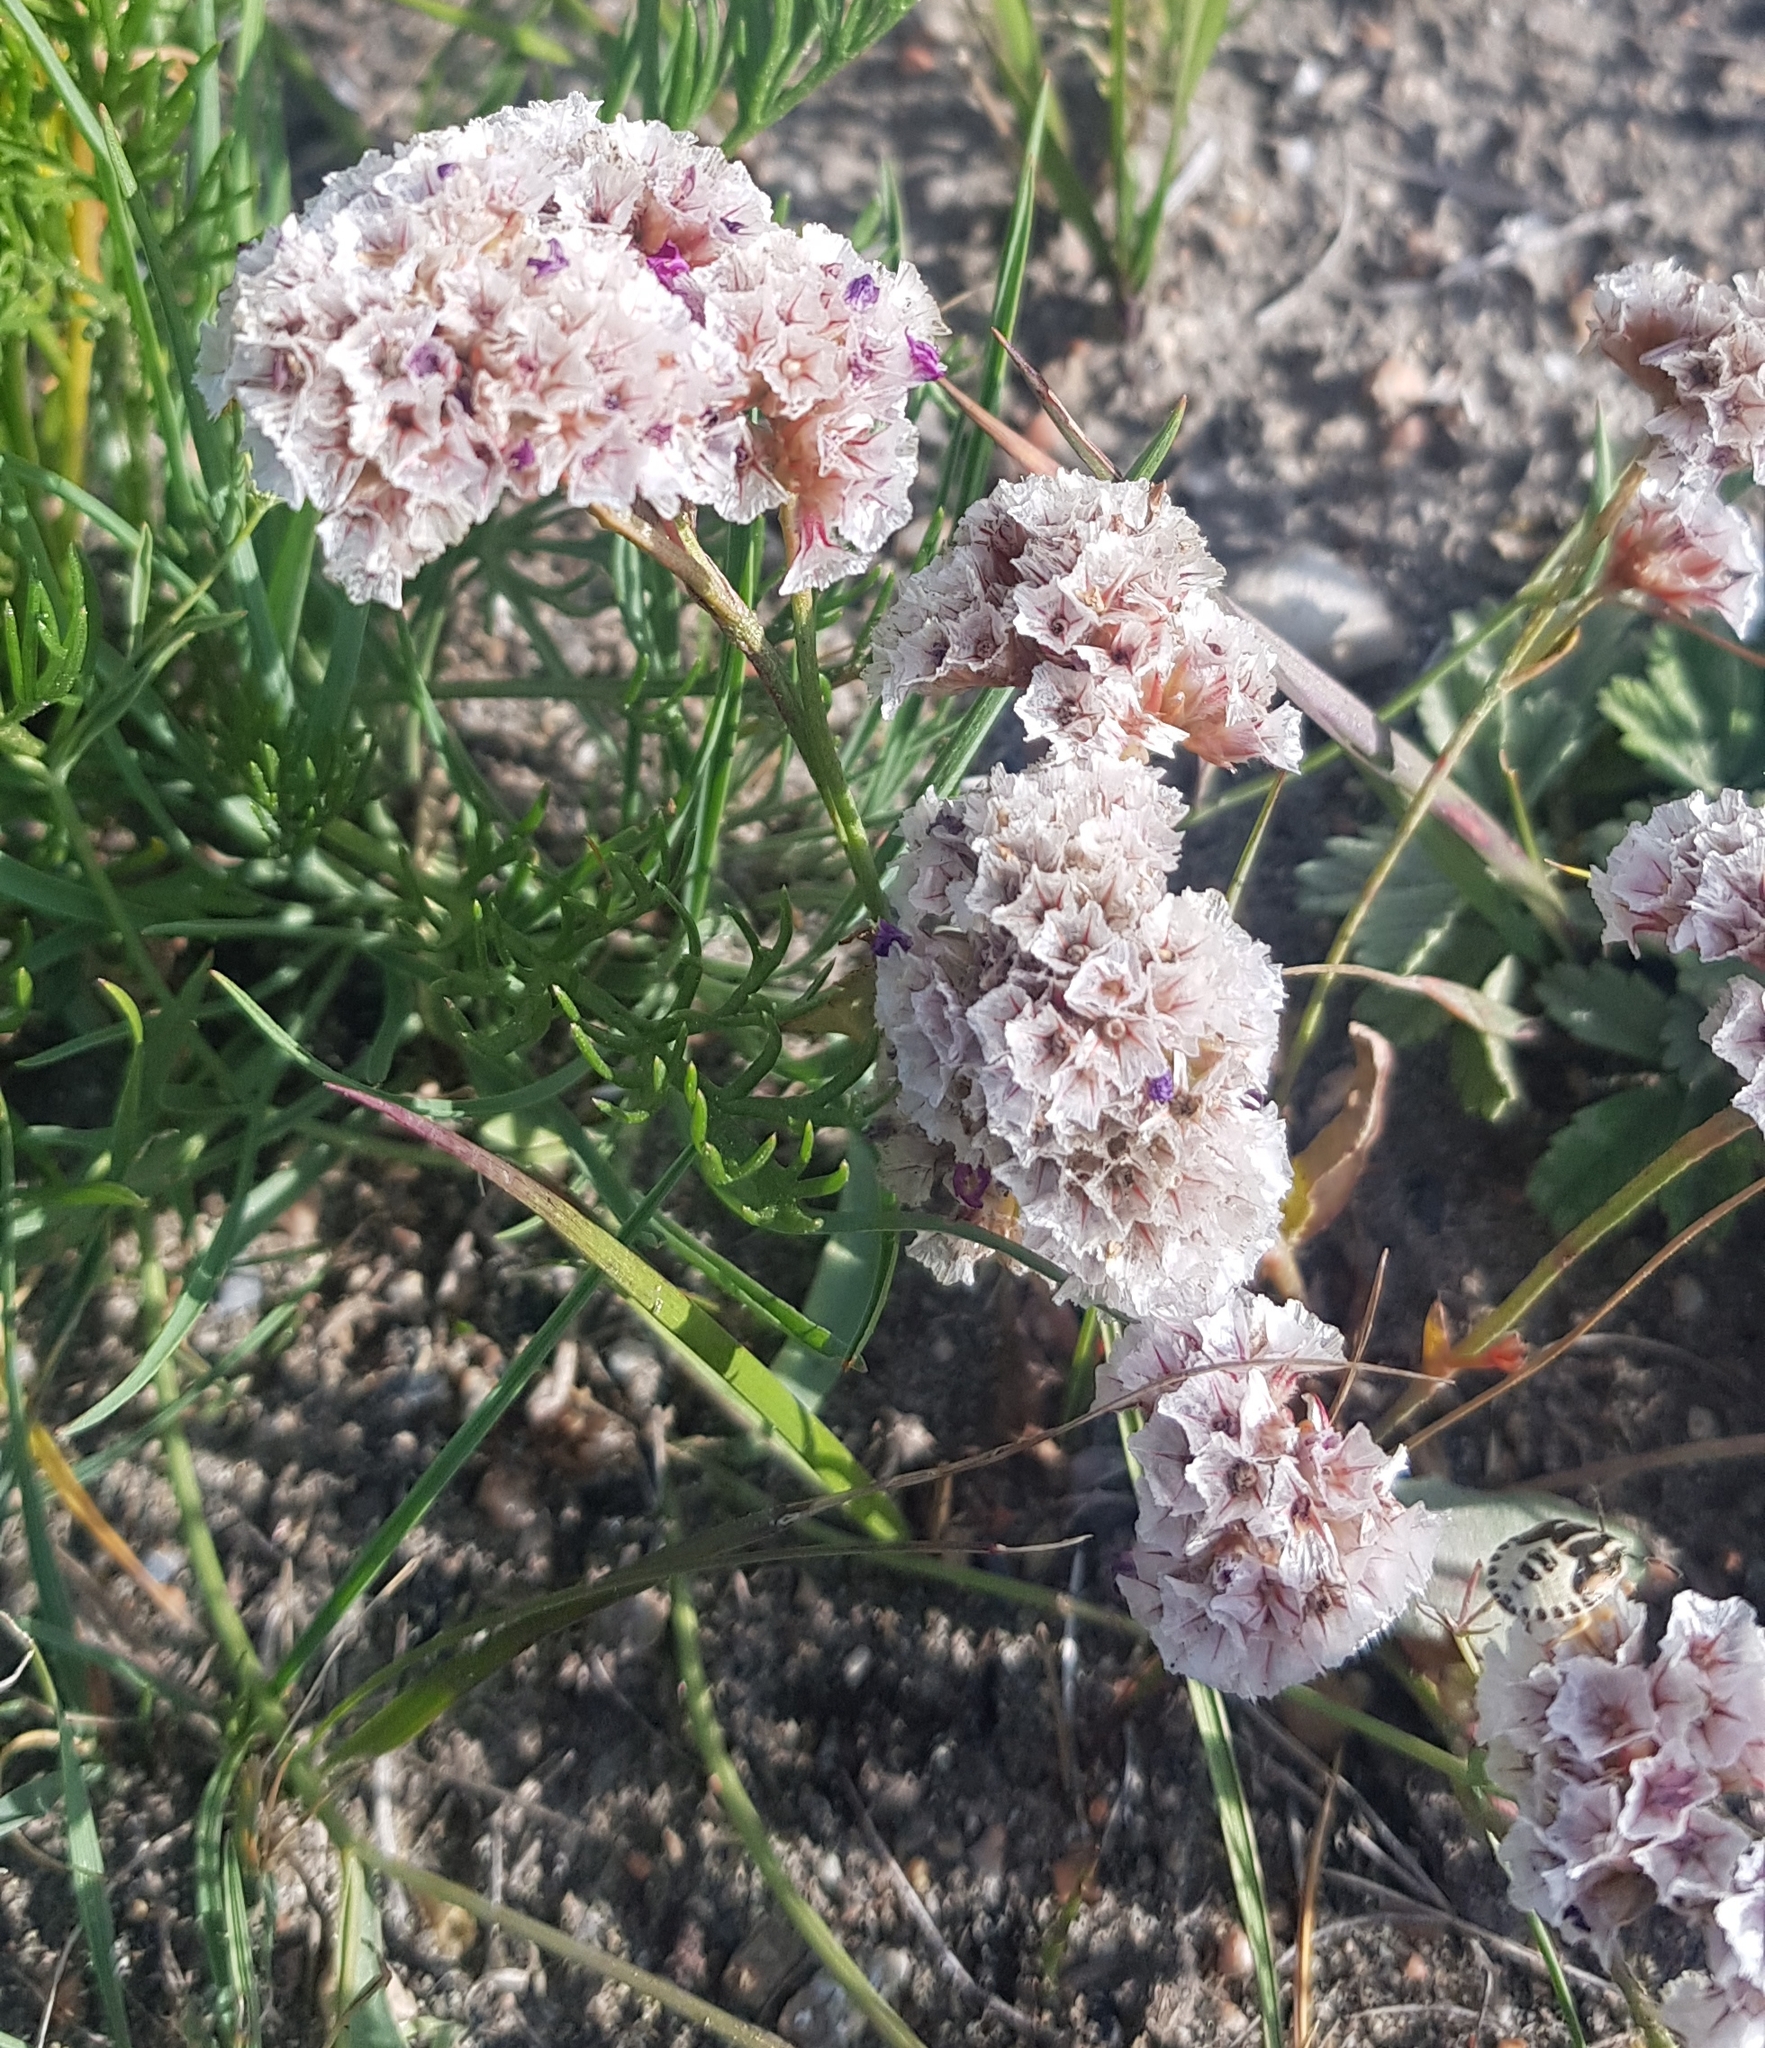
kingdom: Plantae
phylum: Tracheophyta
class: Magnoliopsida
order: Caryophyllales
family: Plumbaginaceae
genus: Goniolimon
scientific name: Goniolimon speciosum
